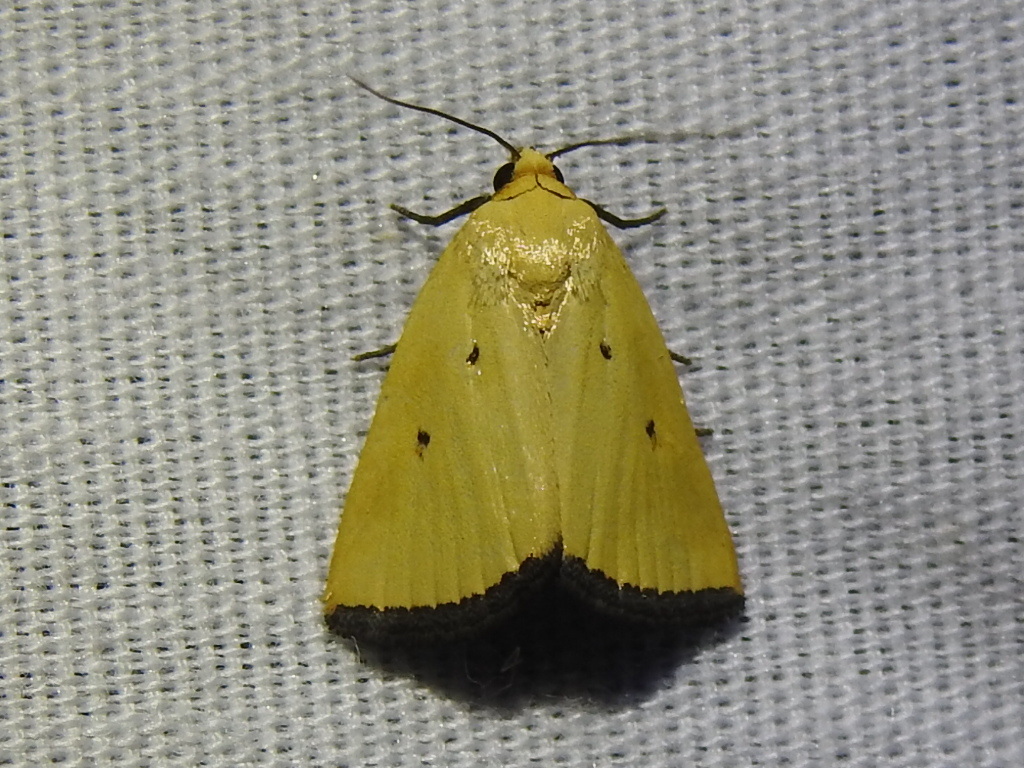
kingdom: Animalia
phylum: Arthropoda
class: Insecta
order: Lepidoptera
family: Noctuidae
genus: Marimatha
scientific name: Marimatha nigrofimbria
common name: Black-bordered lemon moth
